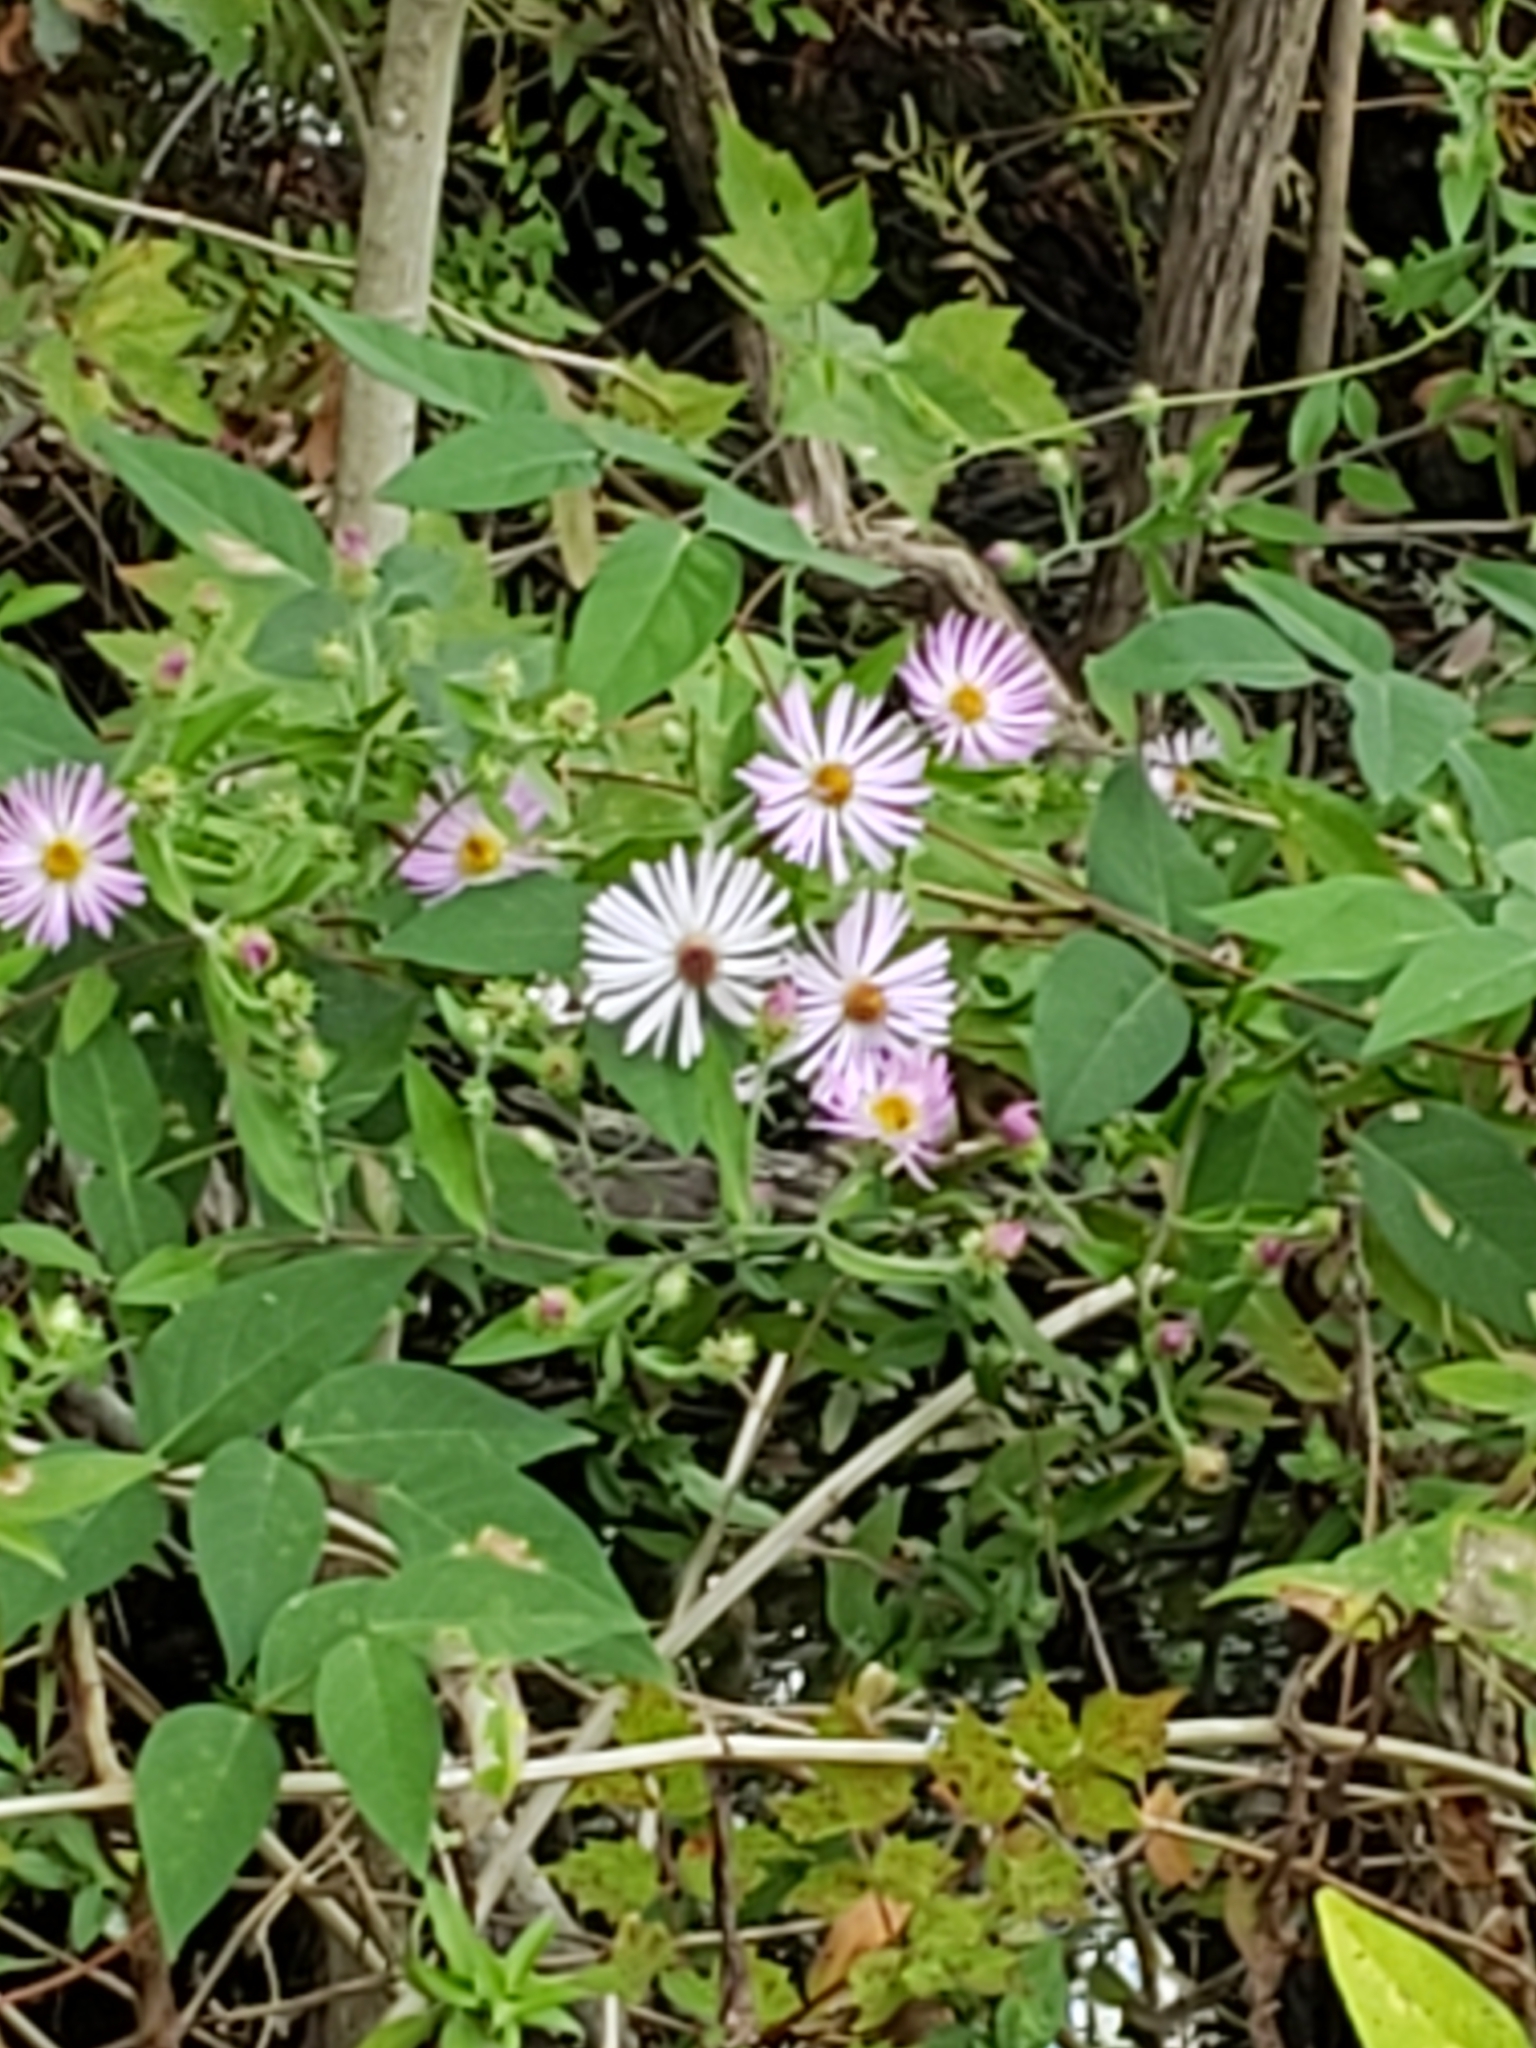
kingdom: Plantae
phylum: Tracheophyta
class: Magnoliopsida
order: Asterales
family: Asteraceae
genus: Ampelaster
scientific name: Ampelaster carolinianus
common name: Climbing aster
